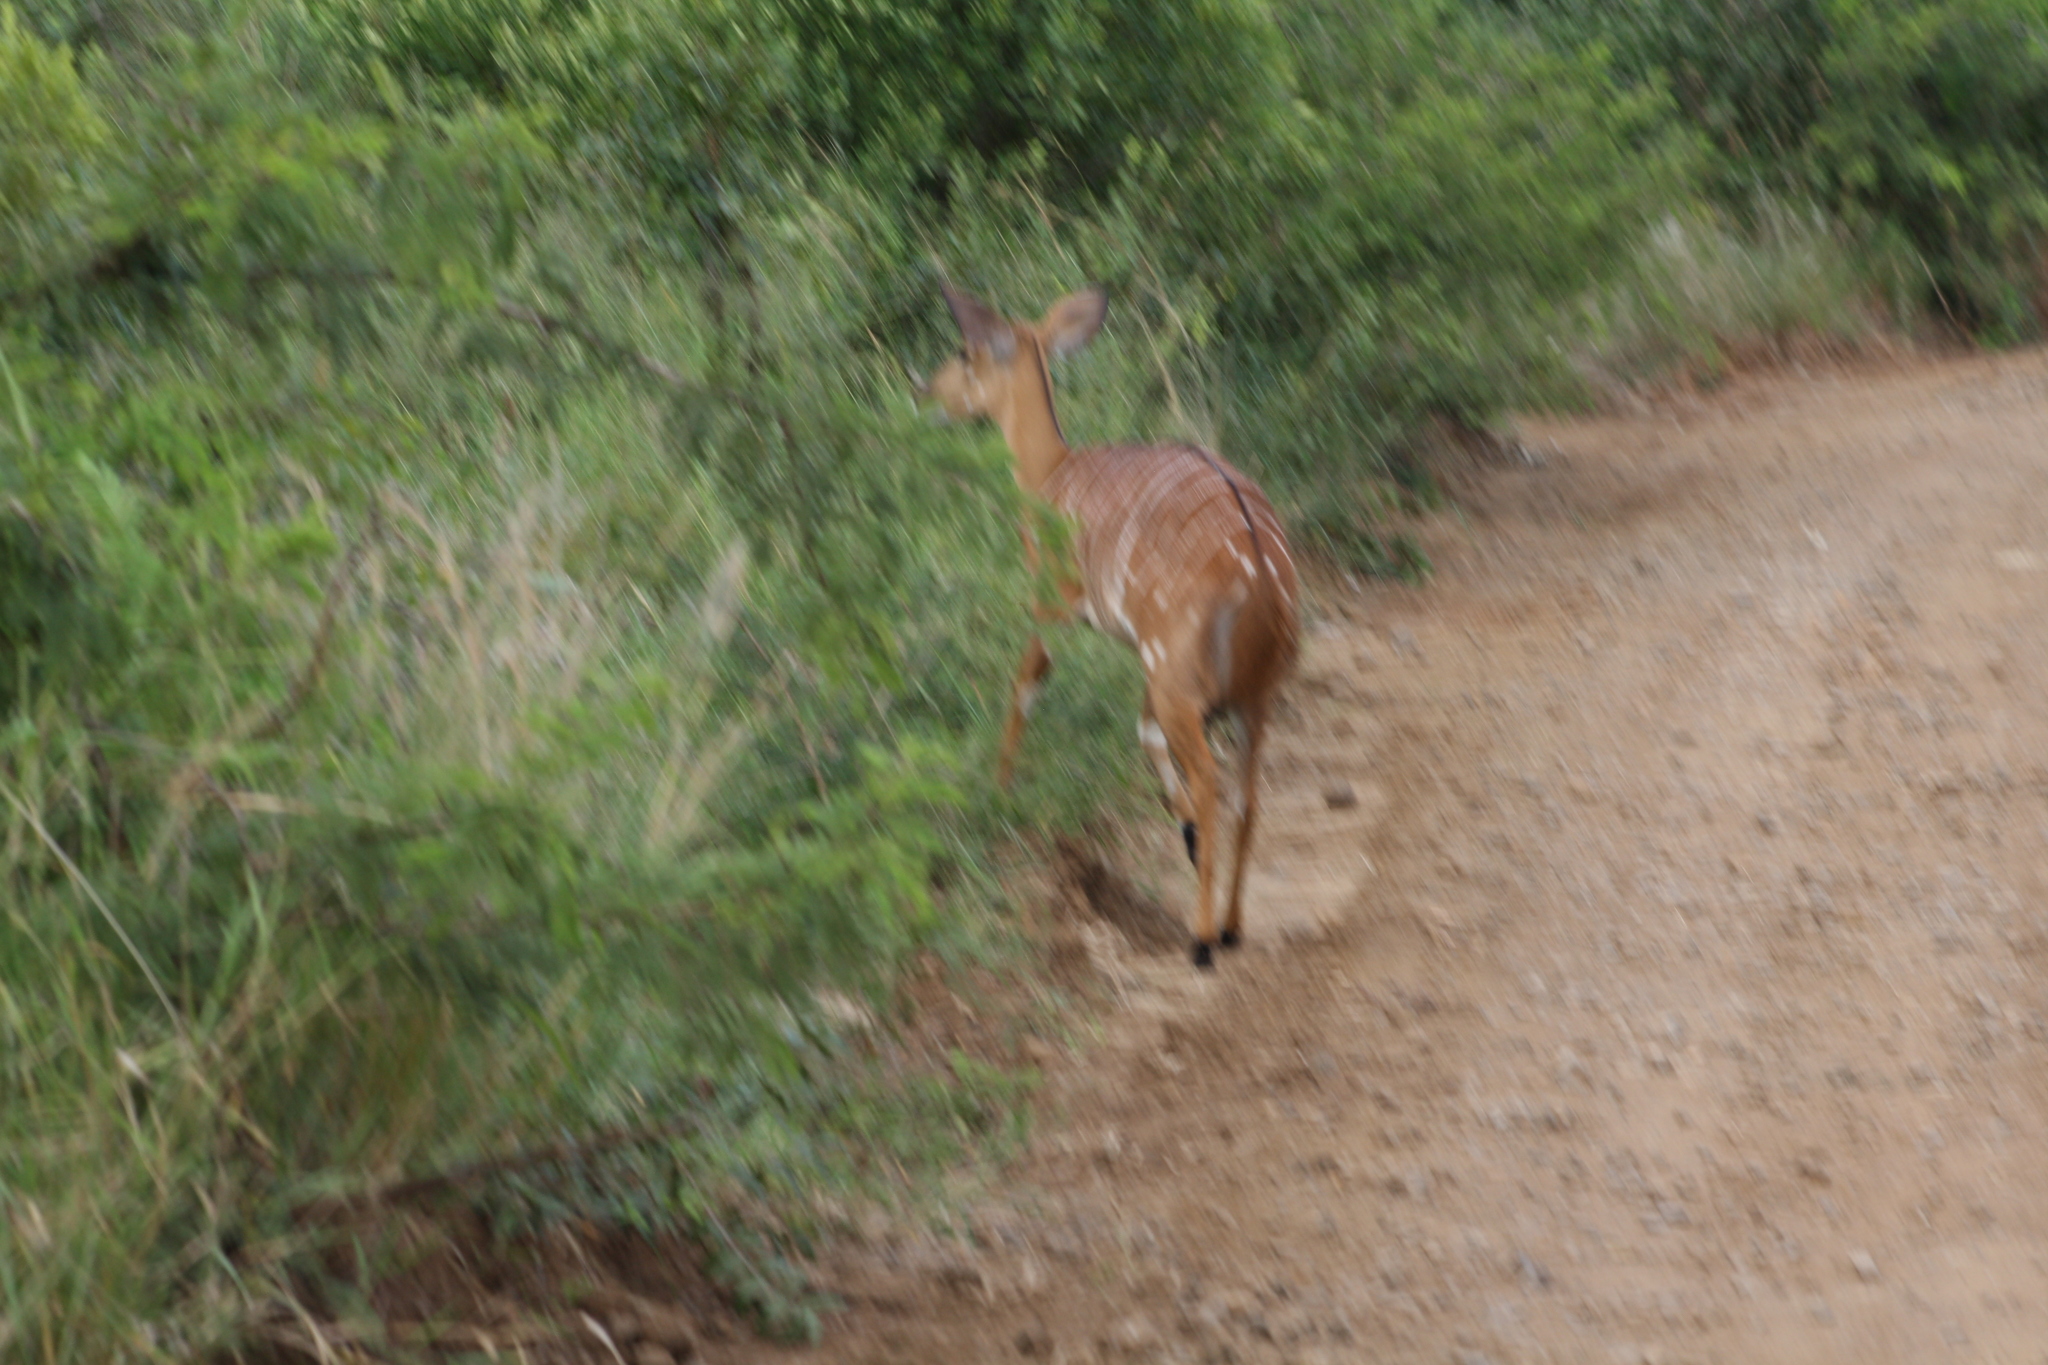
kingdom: Animalia
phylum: Chordata
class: Mammalia
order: Artiodactyla
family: Bovidae
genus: Tragelaphus
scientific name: Tragelaphus angasii
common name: Nyala
